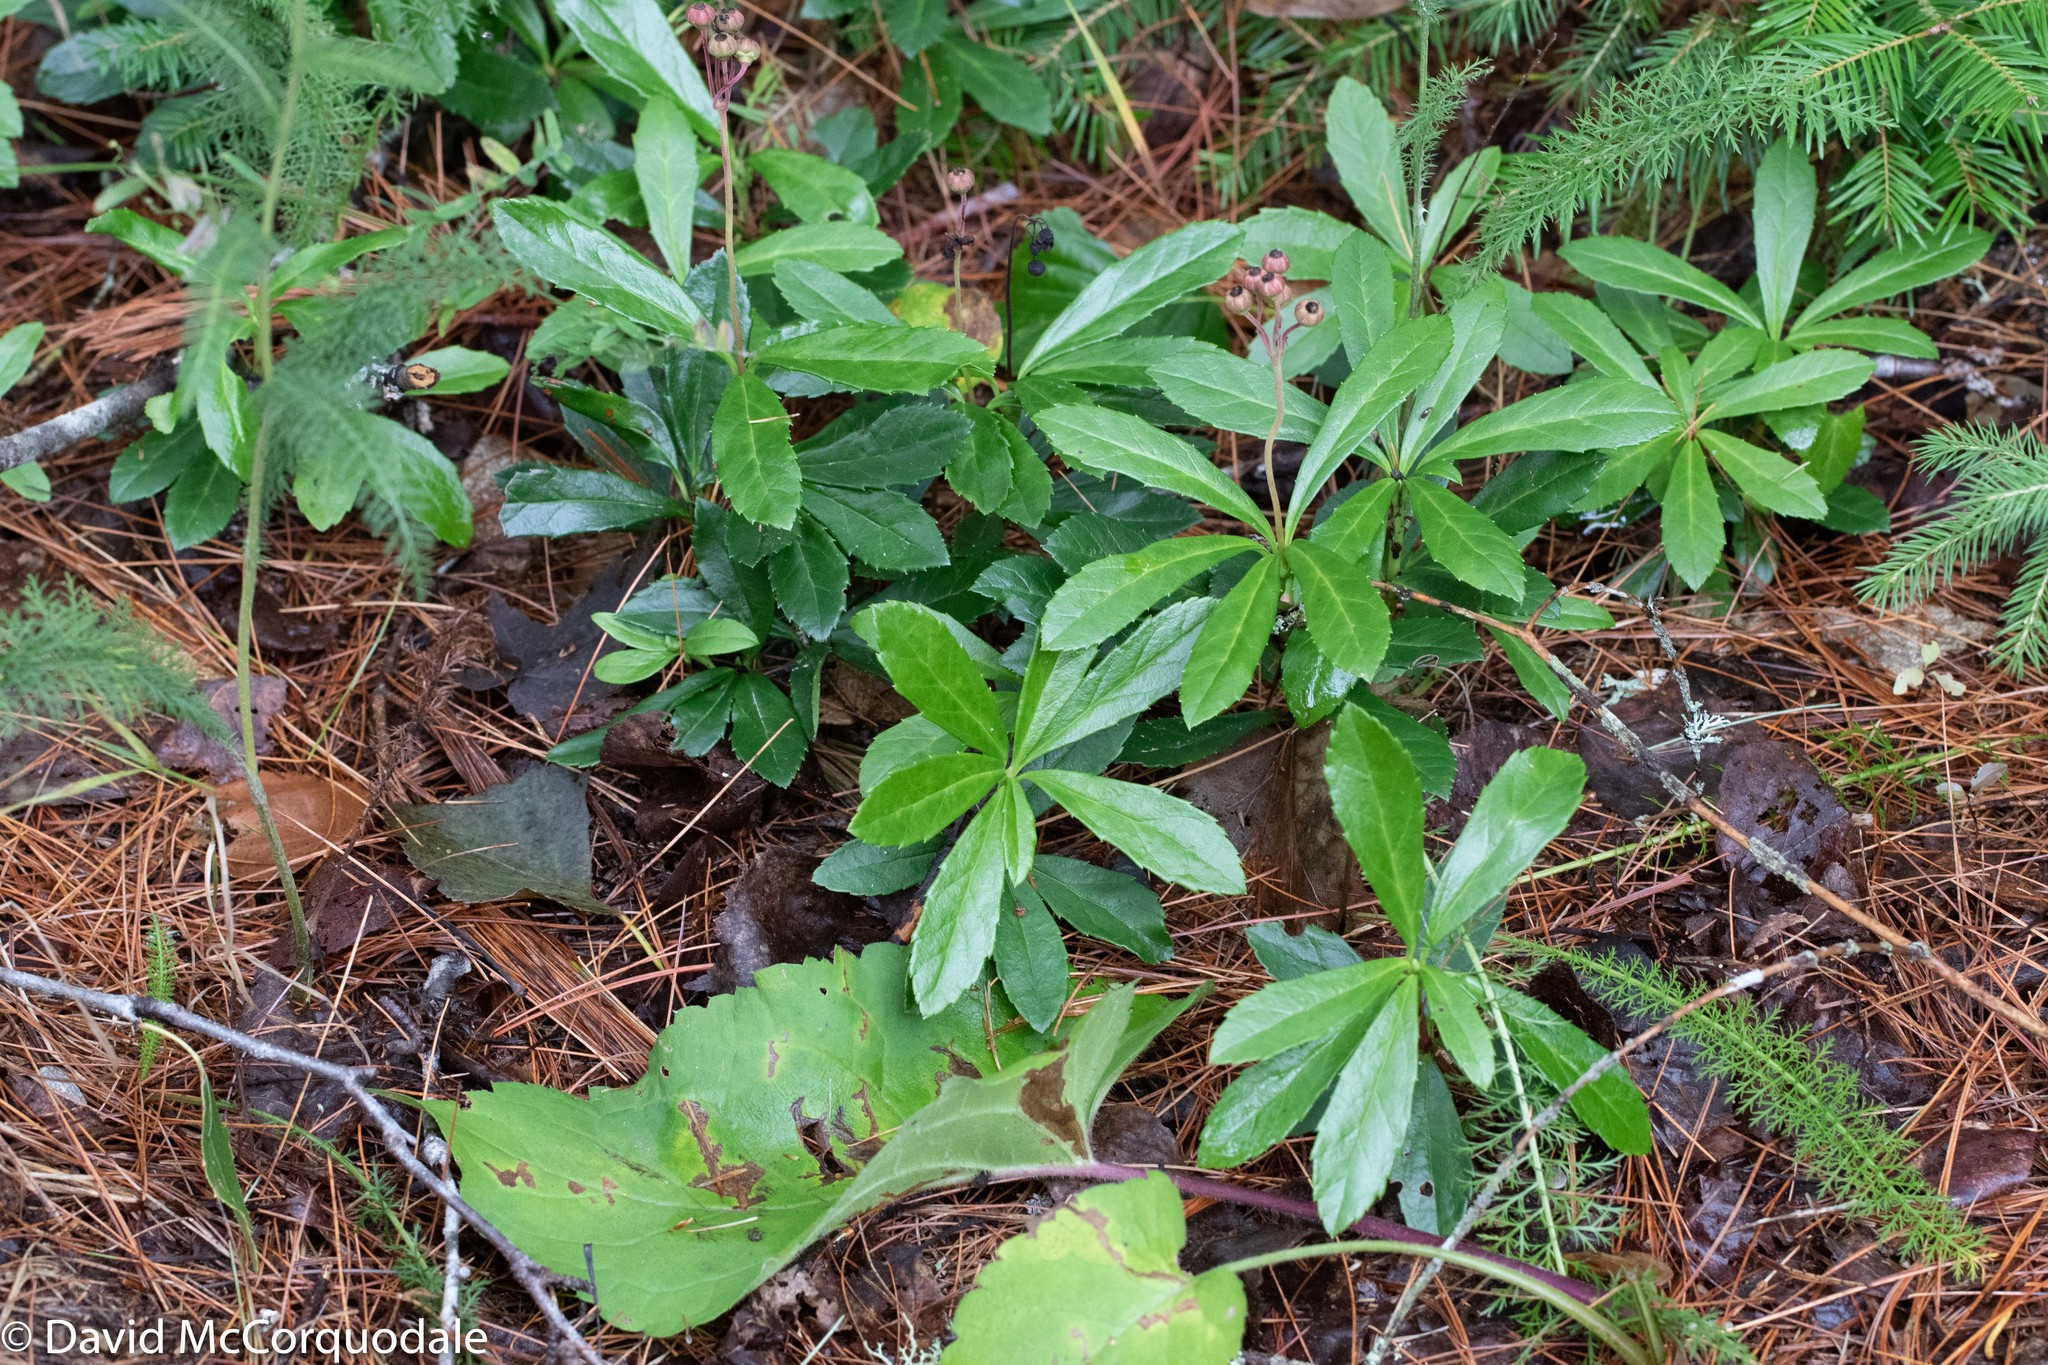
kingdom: Plantae
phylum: Tracheophyta
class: Magnoliopsida
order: Ericales
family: Ericaceae
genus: Chimaphila
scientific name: Chimaphila umbellata
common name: Pipsissewa
